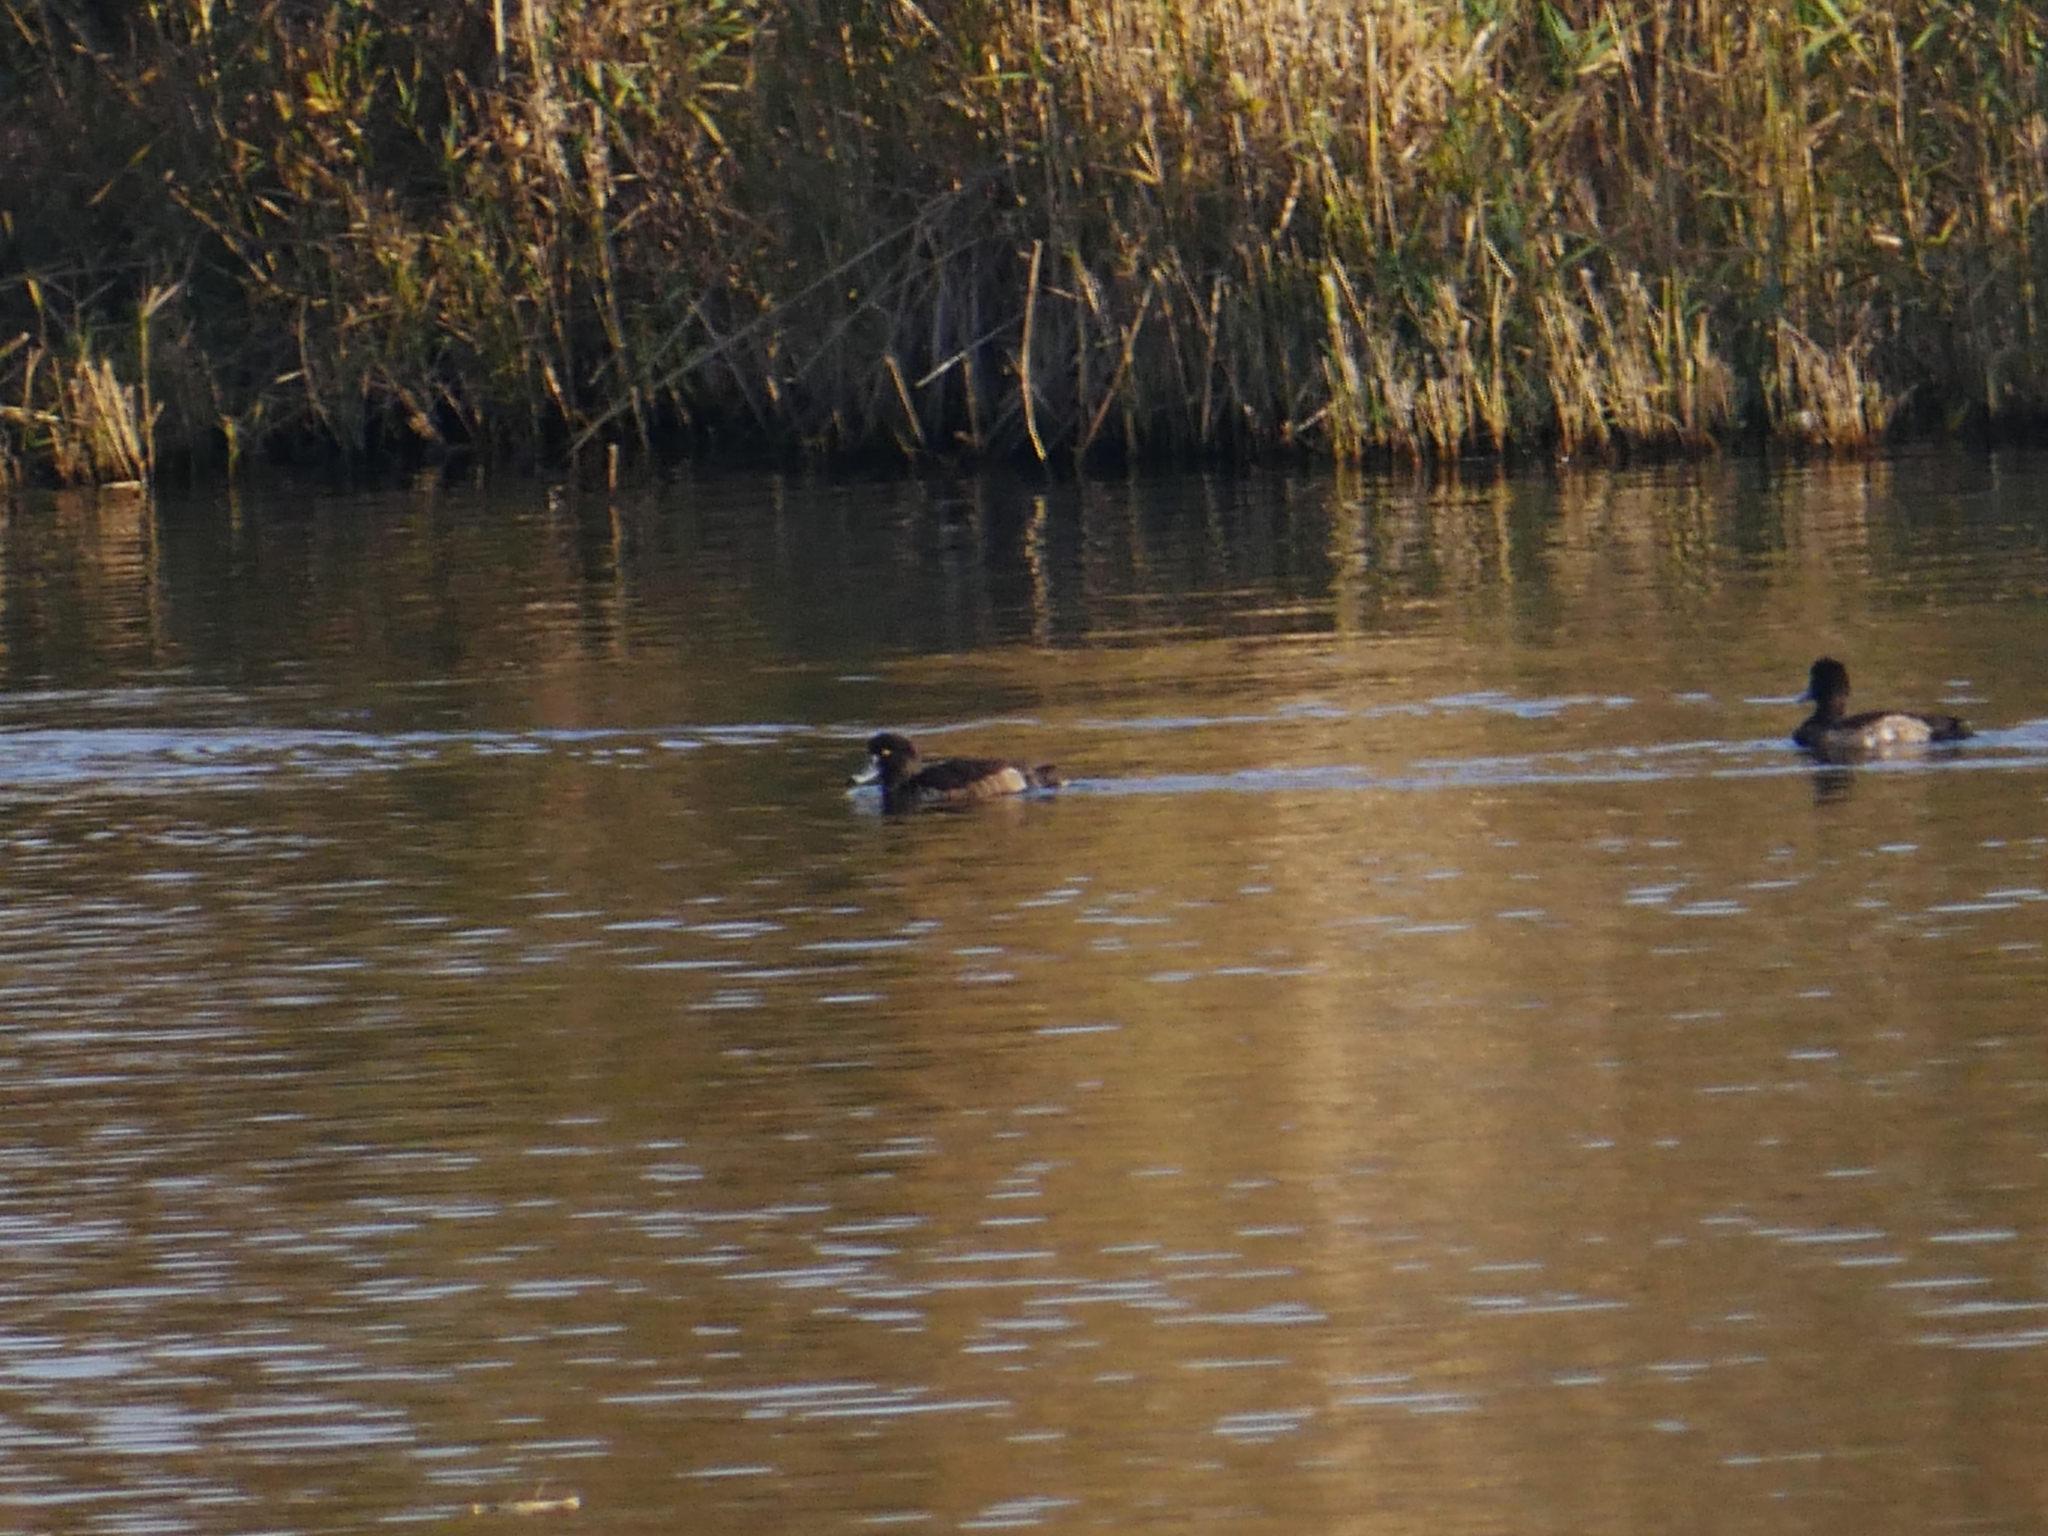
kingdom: Animalia
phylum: Chordata
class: Aves
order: Anseriformes
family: Anatidae
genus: Aythya
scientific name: Aythya fuligula
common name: Tufted duck
